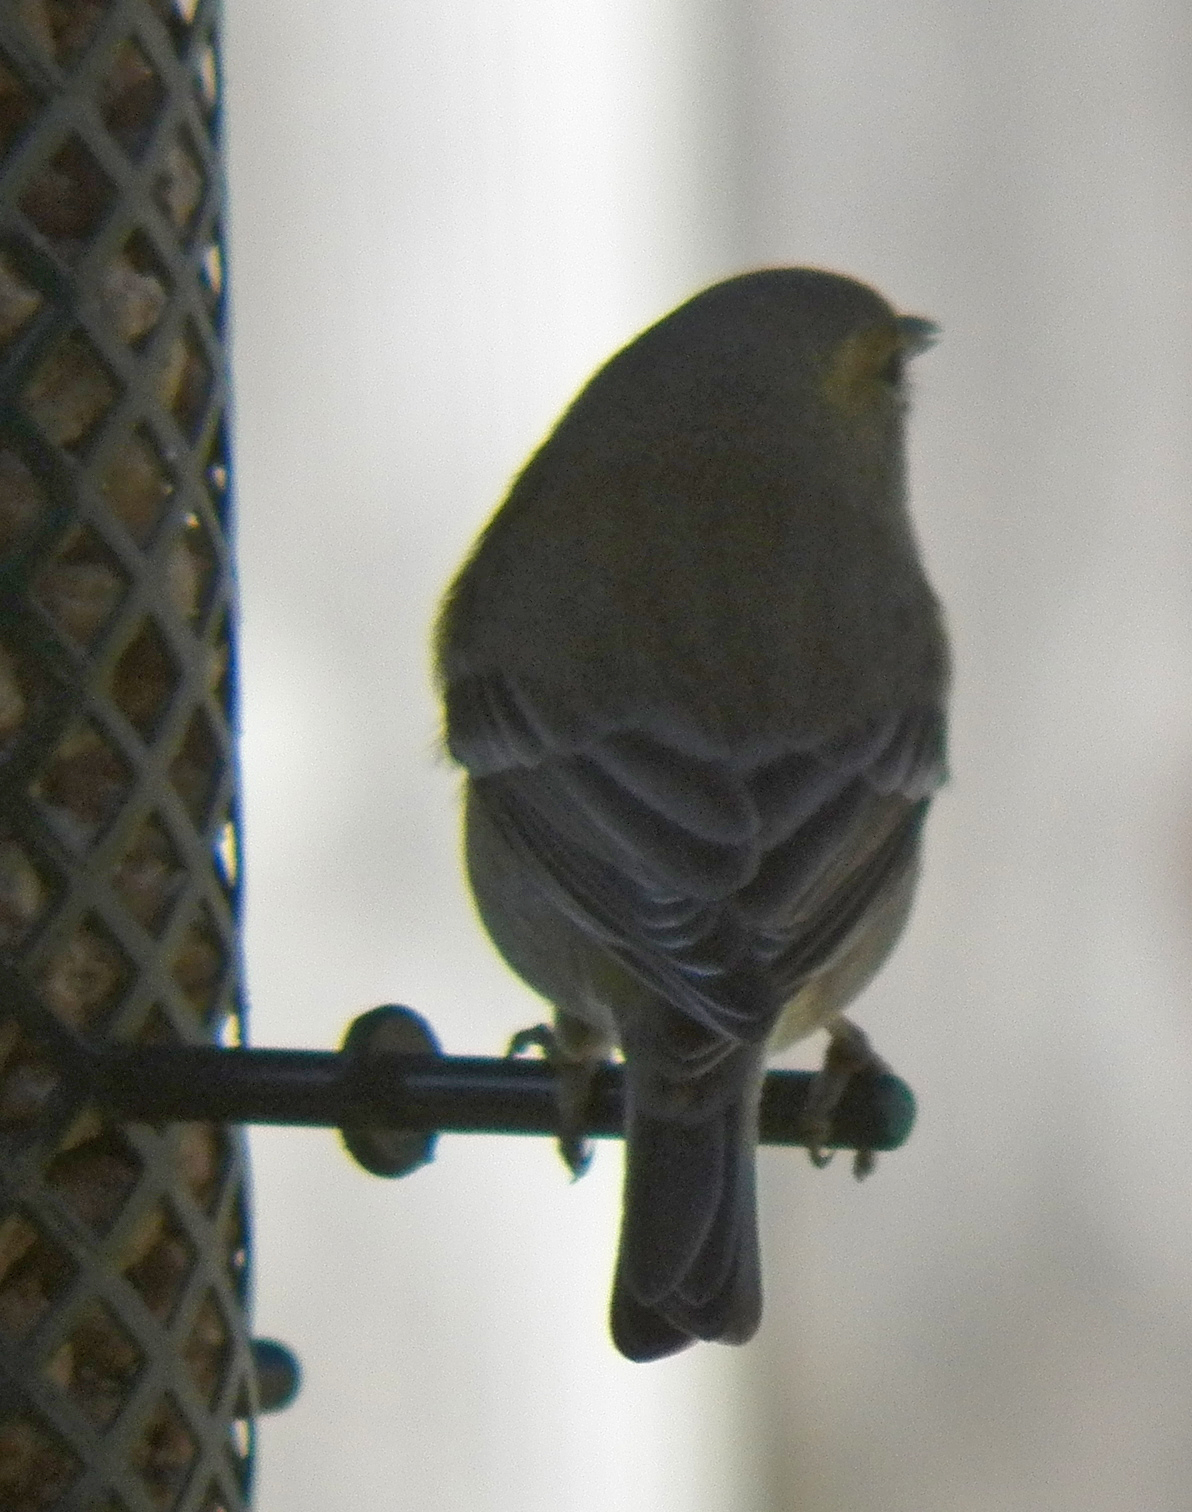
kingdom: Animalia
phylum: Chordata
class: Aves
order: Passeriformes
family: Parulidae
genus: Setophaga
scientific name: Setophaga pinus
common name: Pine warbler
